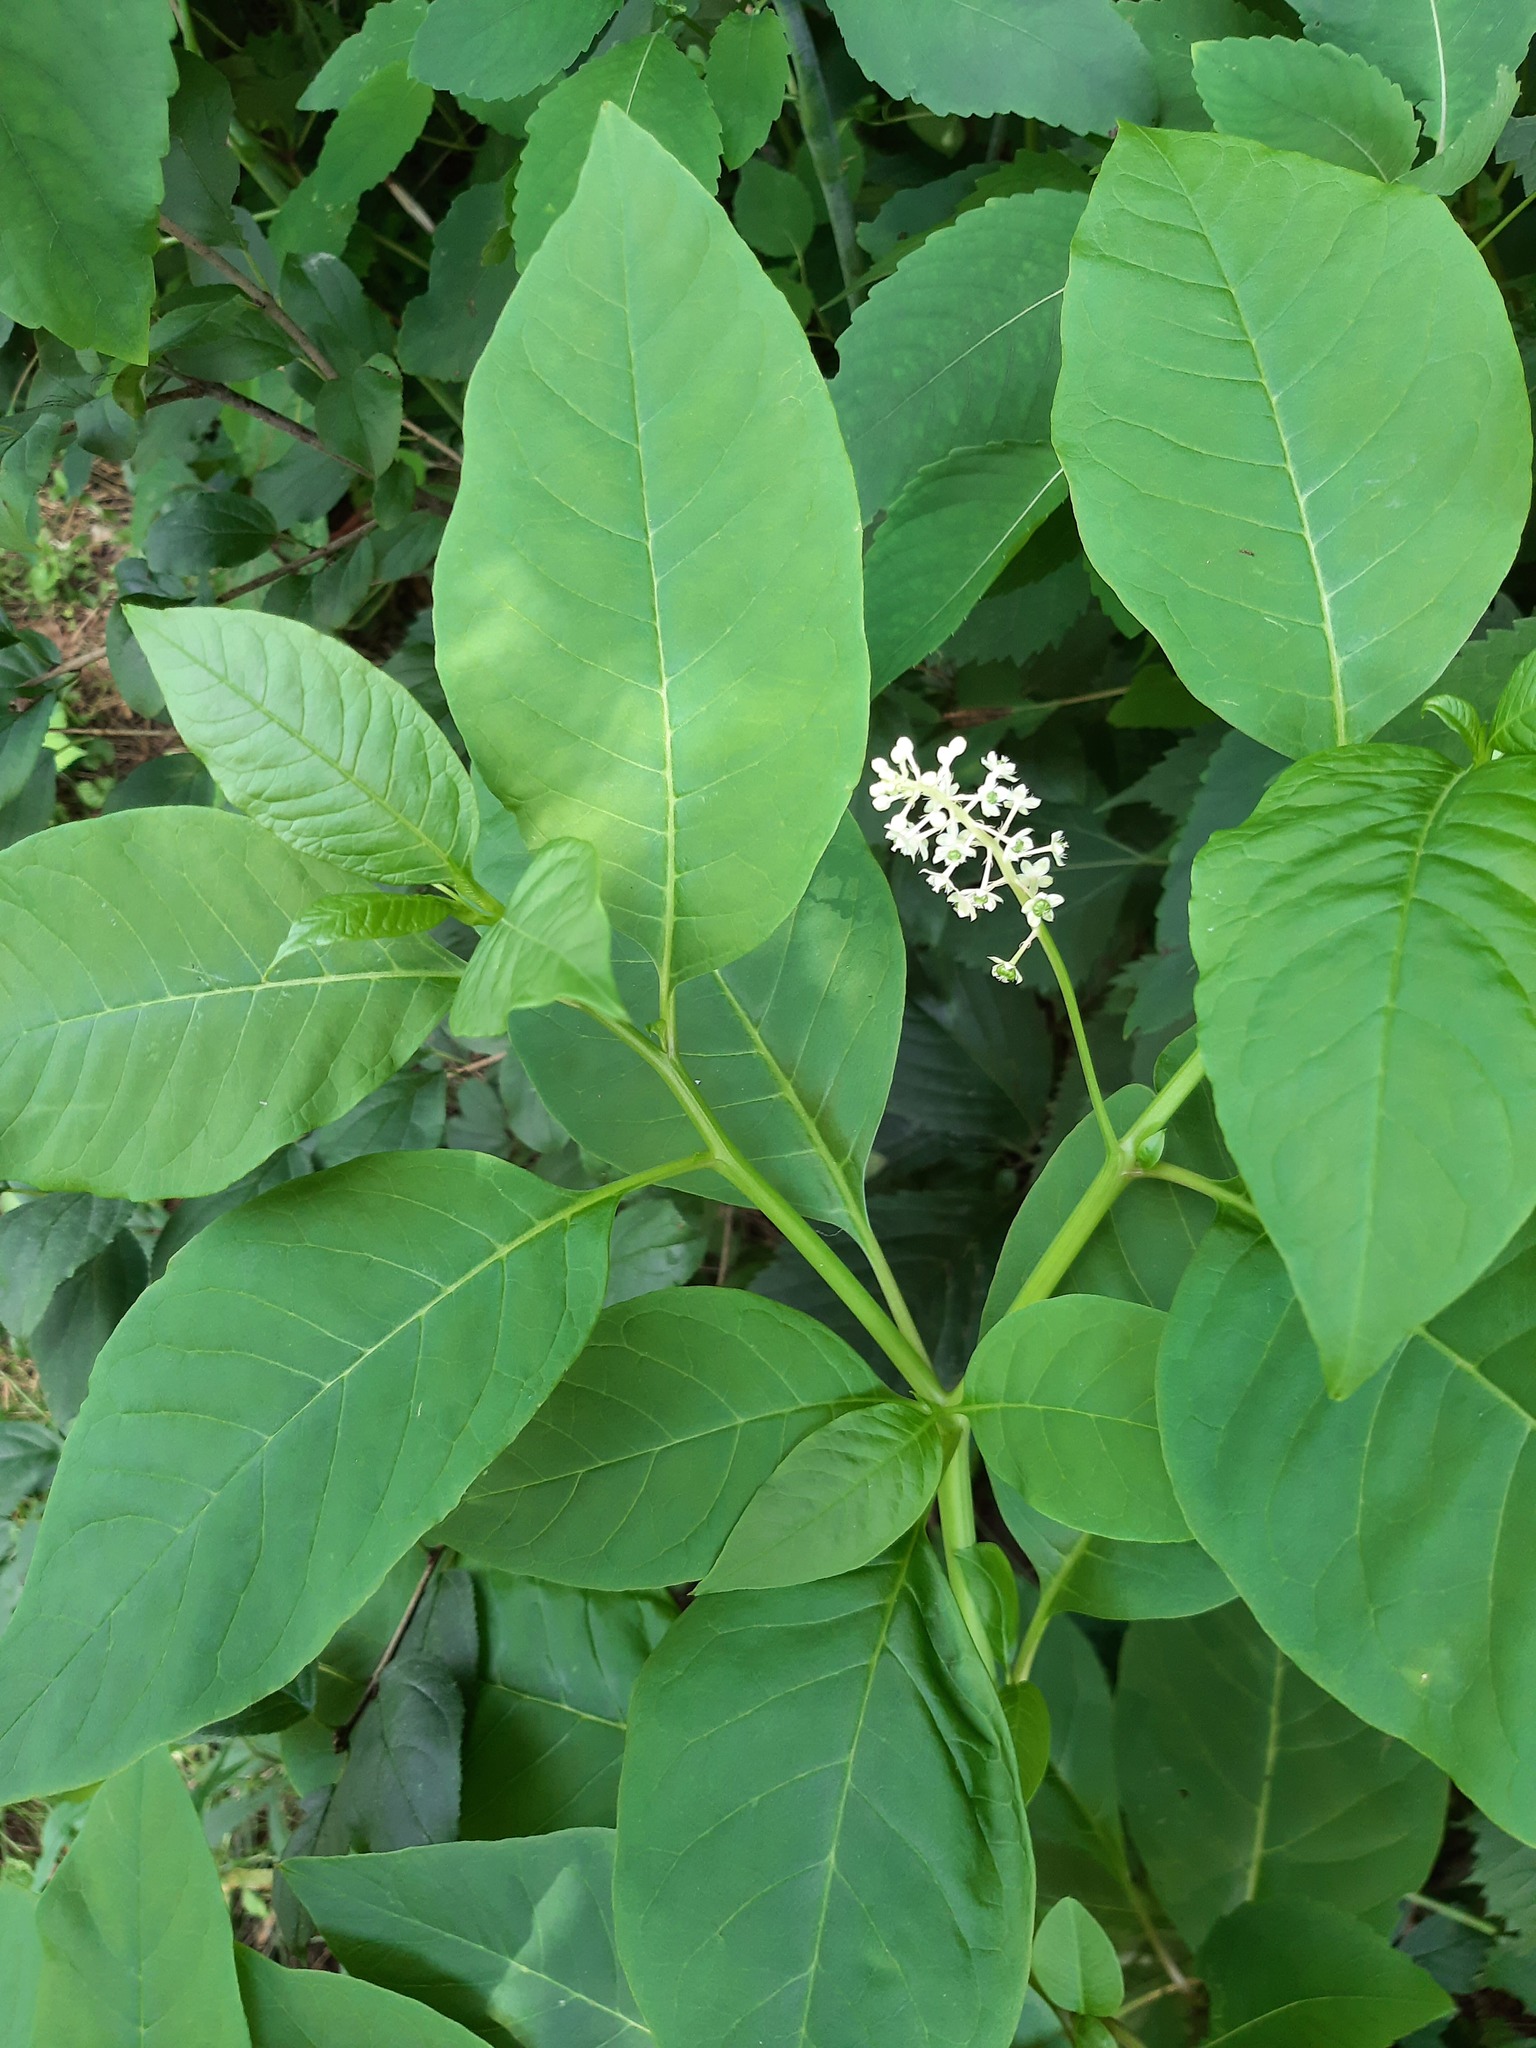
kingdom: Plantae
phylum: Tracheophyta
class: Magnoliopsida
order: Caryophyllales
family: Phytolaccaceae
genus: Phytolacca
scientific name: Phytolacca americana
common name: American pokeweed
